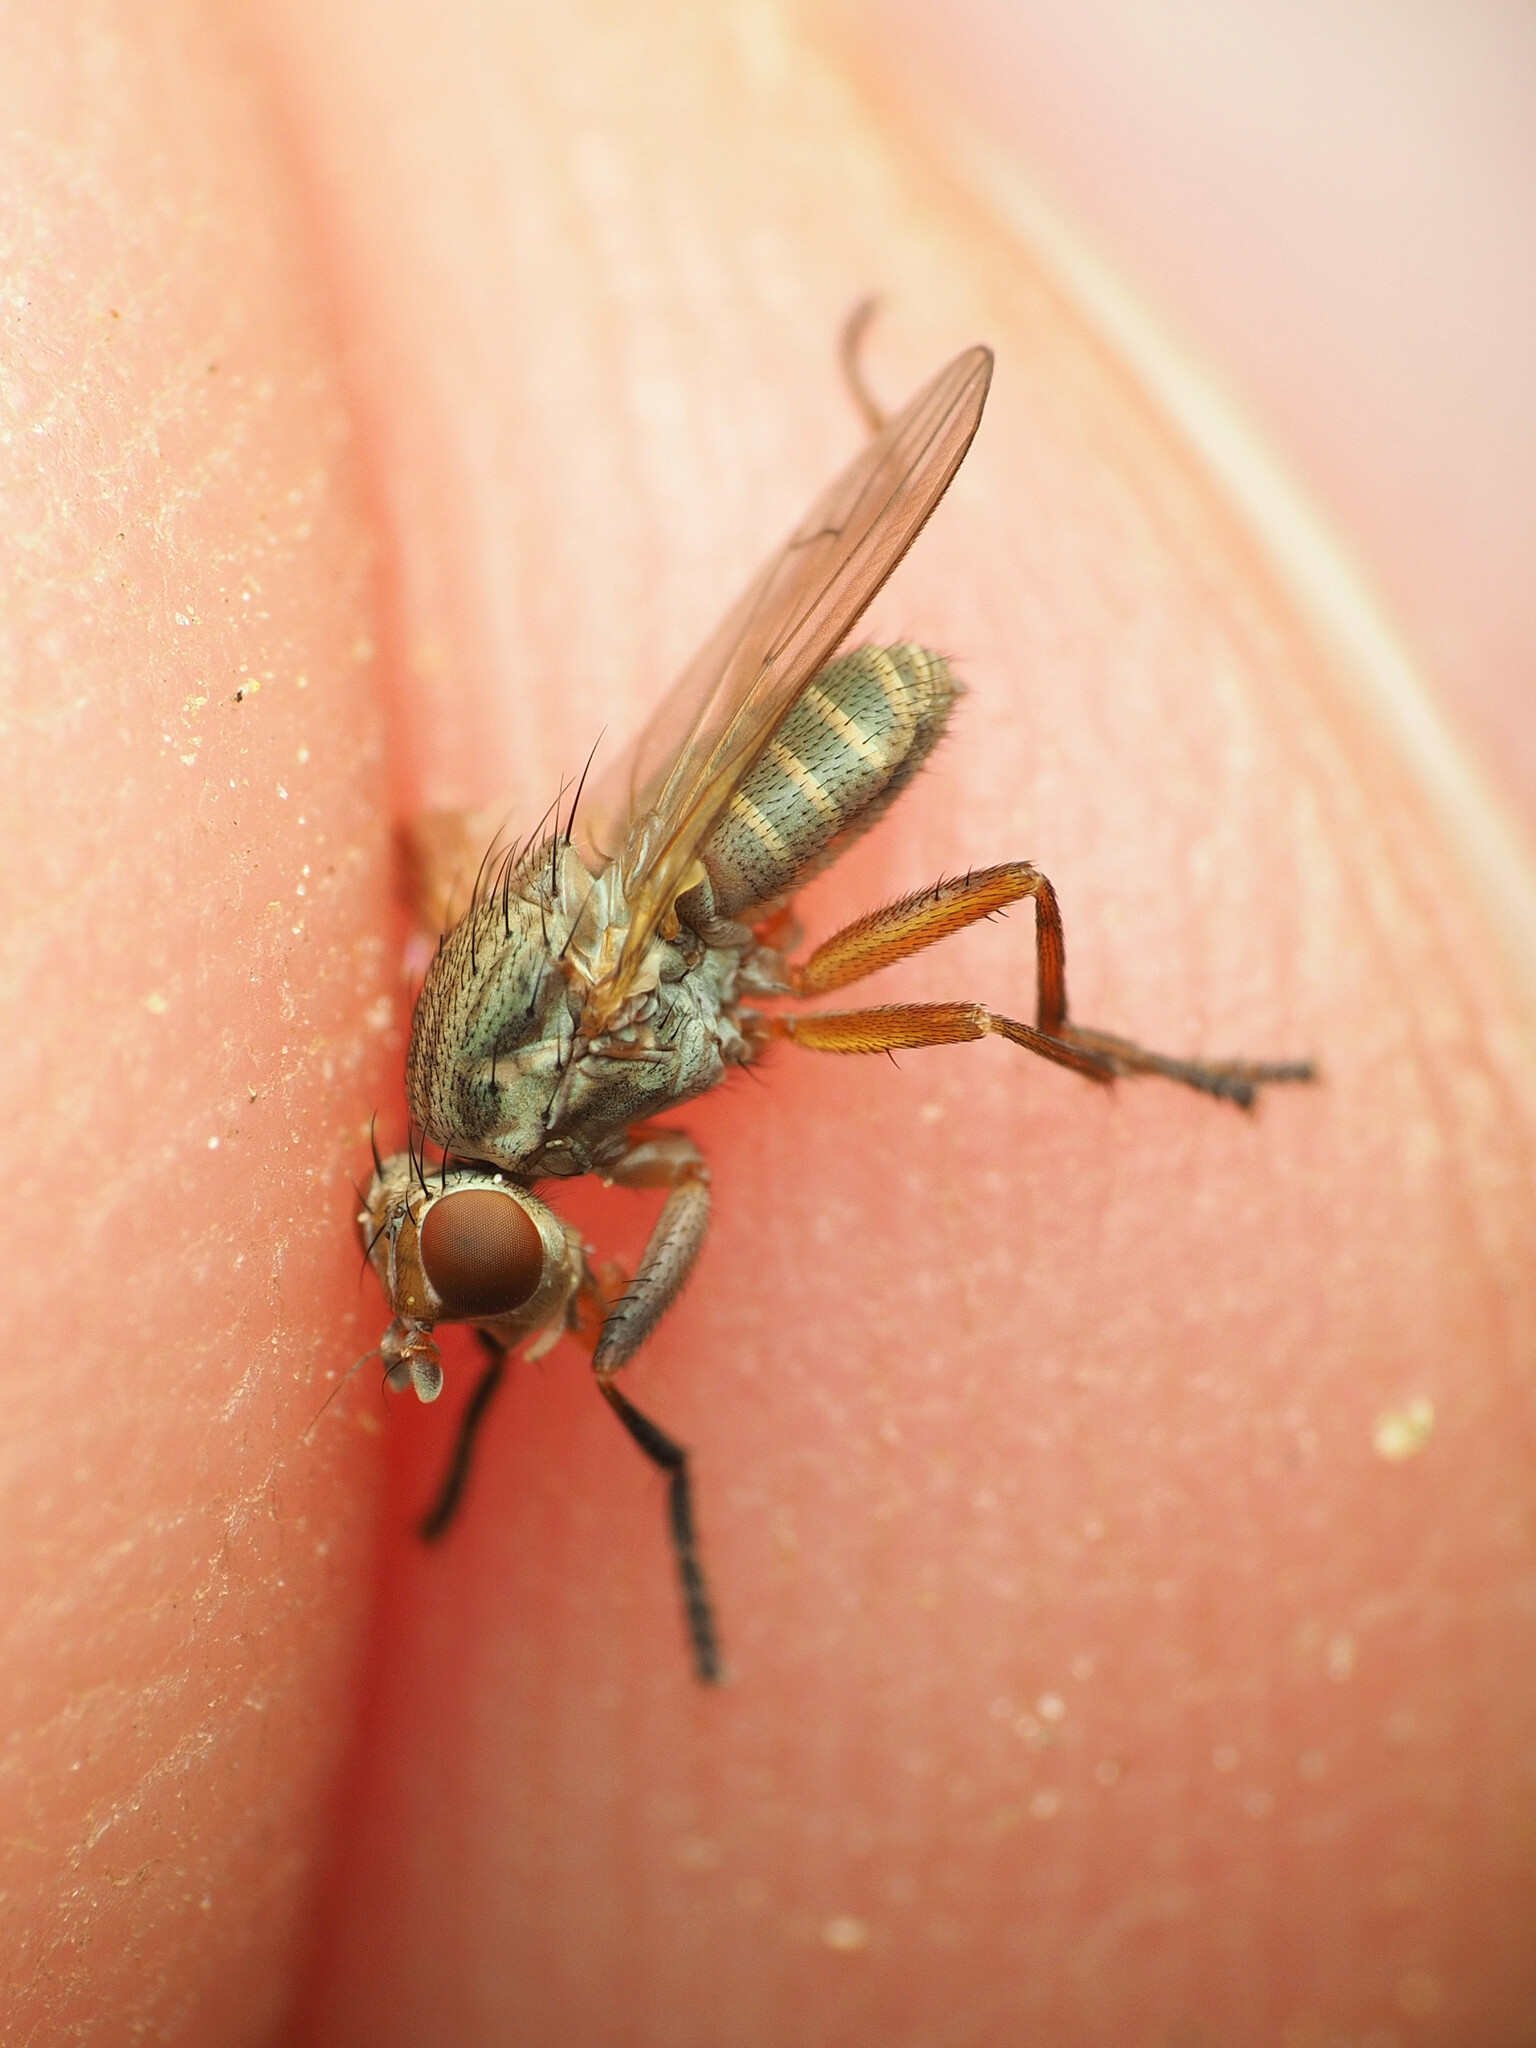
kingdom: Animalia
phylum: Arthropoda
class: Insecta
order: Diptera
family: Sciomyzidae
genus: Ditaeniella
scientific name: Ditaeniella
